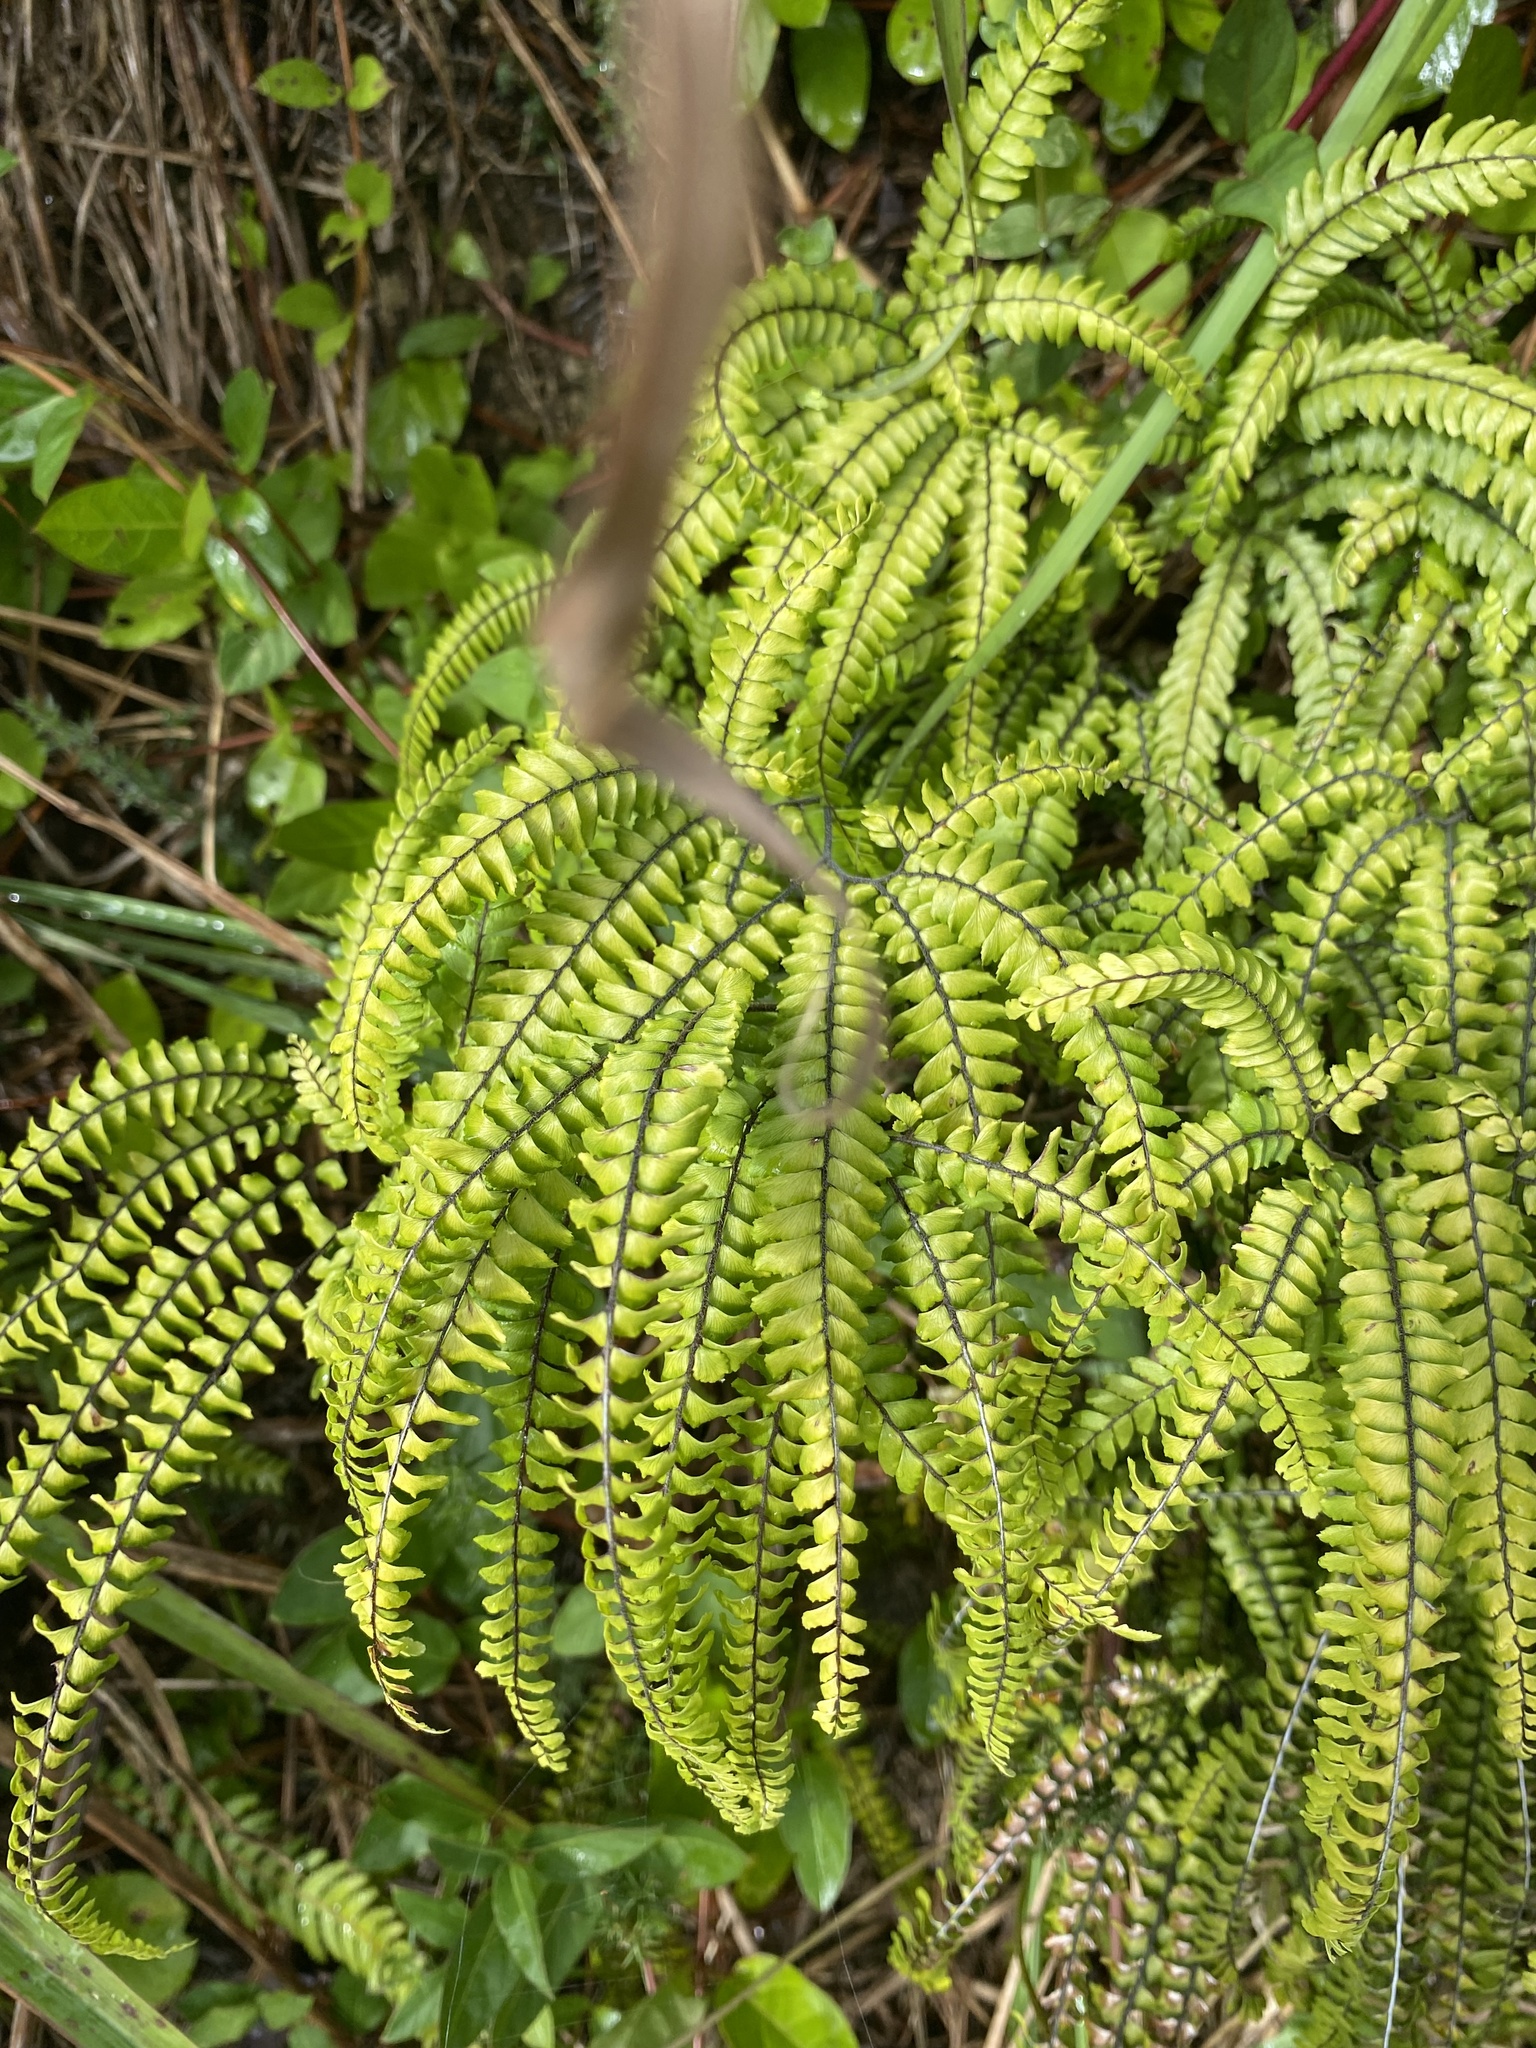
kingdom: Plantae
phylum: Tracheophyta
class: Polypodiopsida
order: Polypodiales
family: Pteridaceae
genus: Adiantum
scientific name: Adiantum hispidulum
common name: Rough maidenhair
